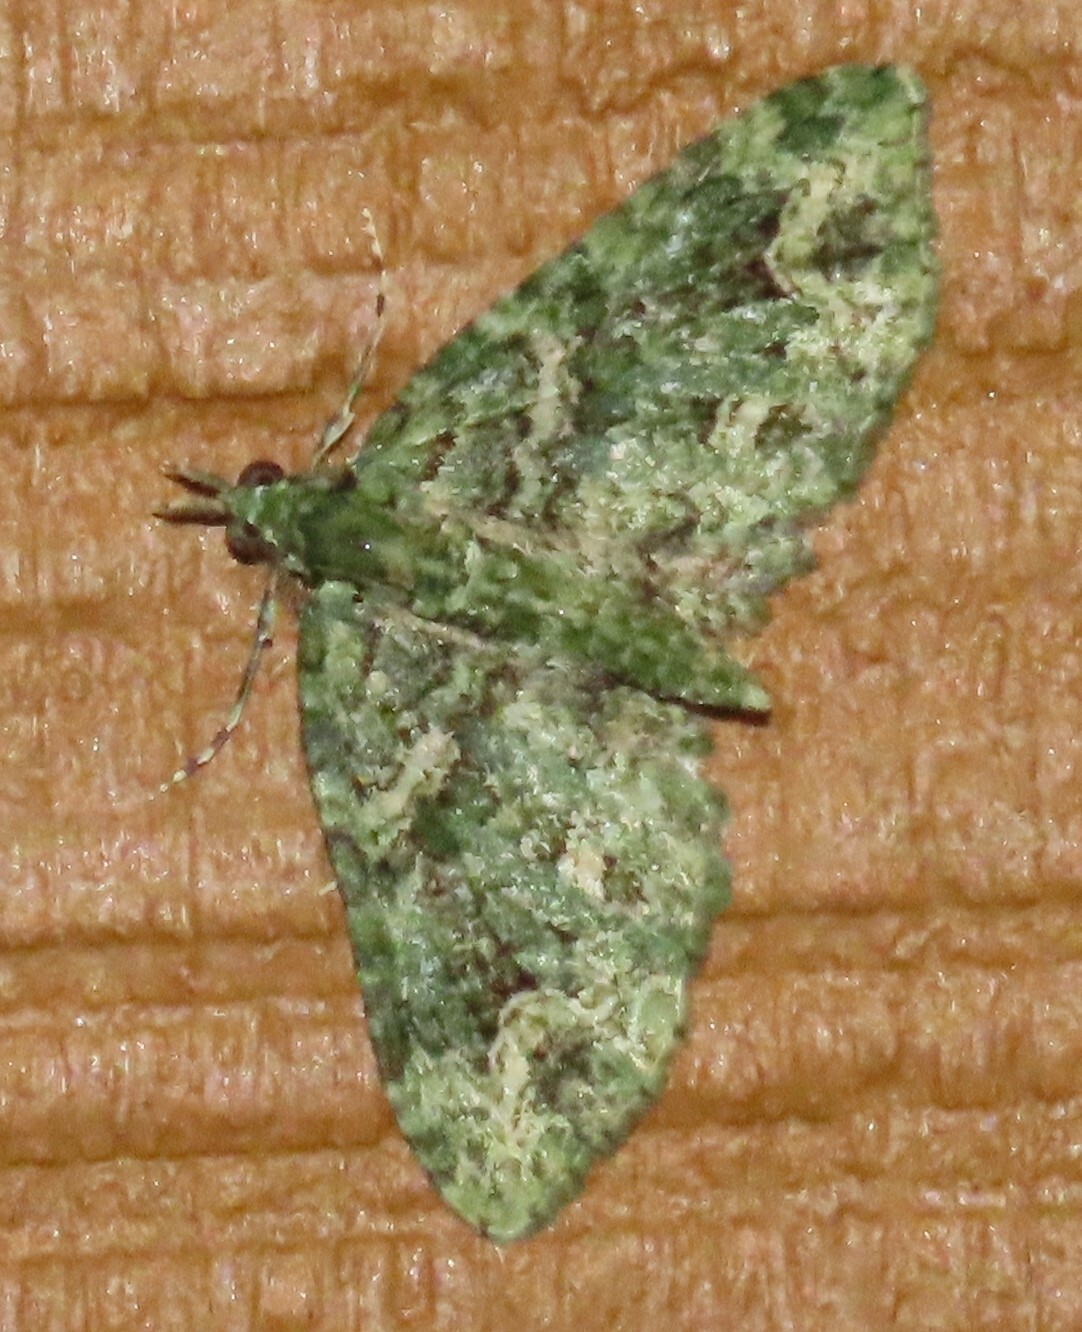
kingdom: Animalia
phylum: Arthropoda
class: Insecta
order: Lepidoptera
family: Geometridae
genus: Pasiphila
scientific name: Pasiphila muscosata
